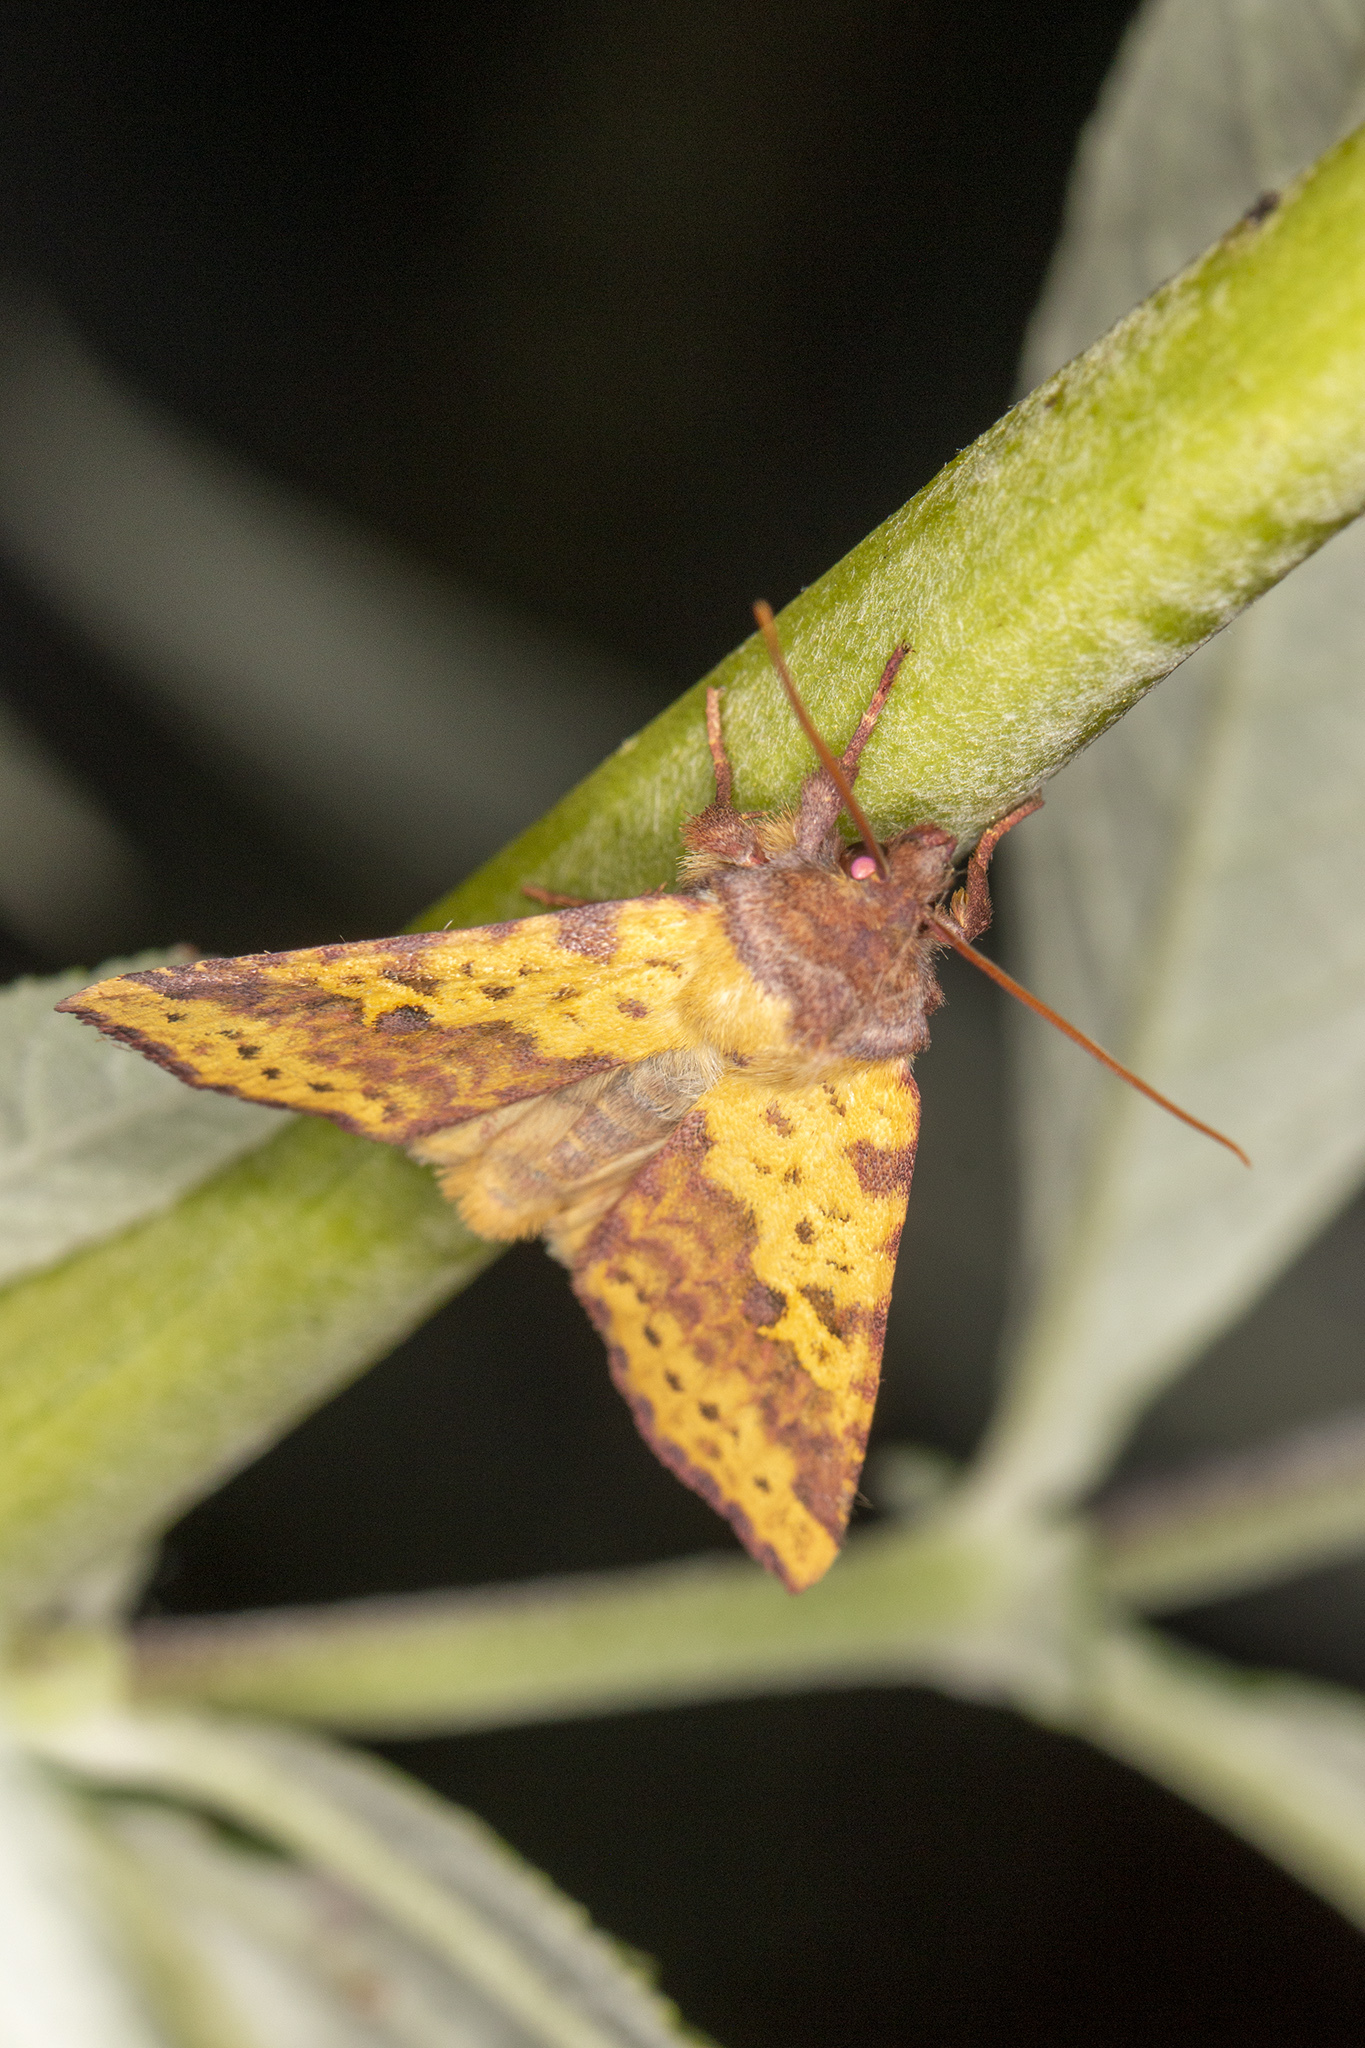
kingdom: Animalia
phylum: Arthropoda
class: Insecta
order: Lepidoptera
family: Noctuidae
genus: Xanthia
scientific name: Xanthia togata
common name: Pink-barred sallow
